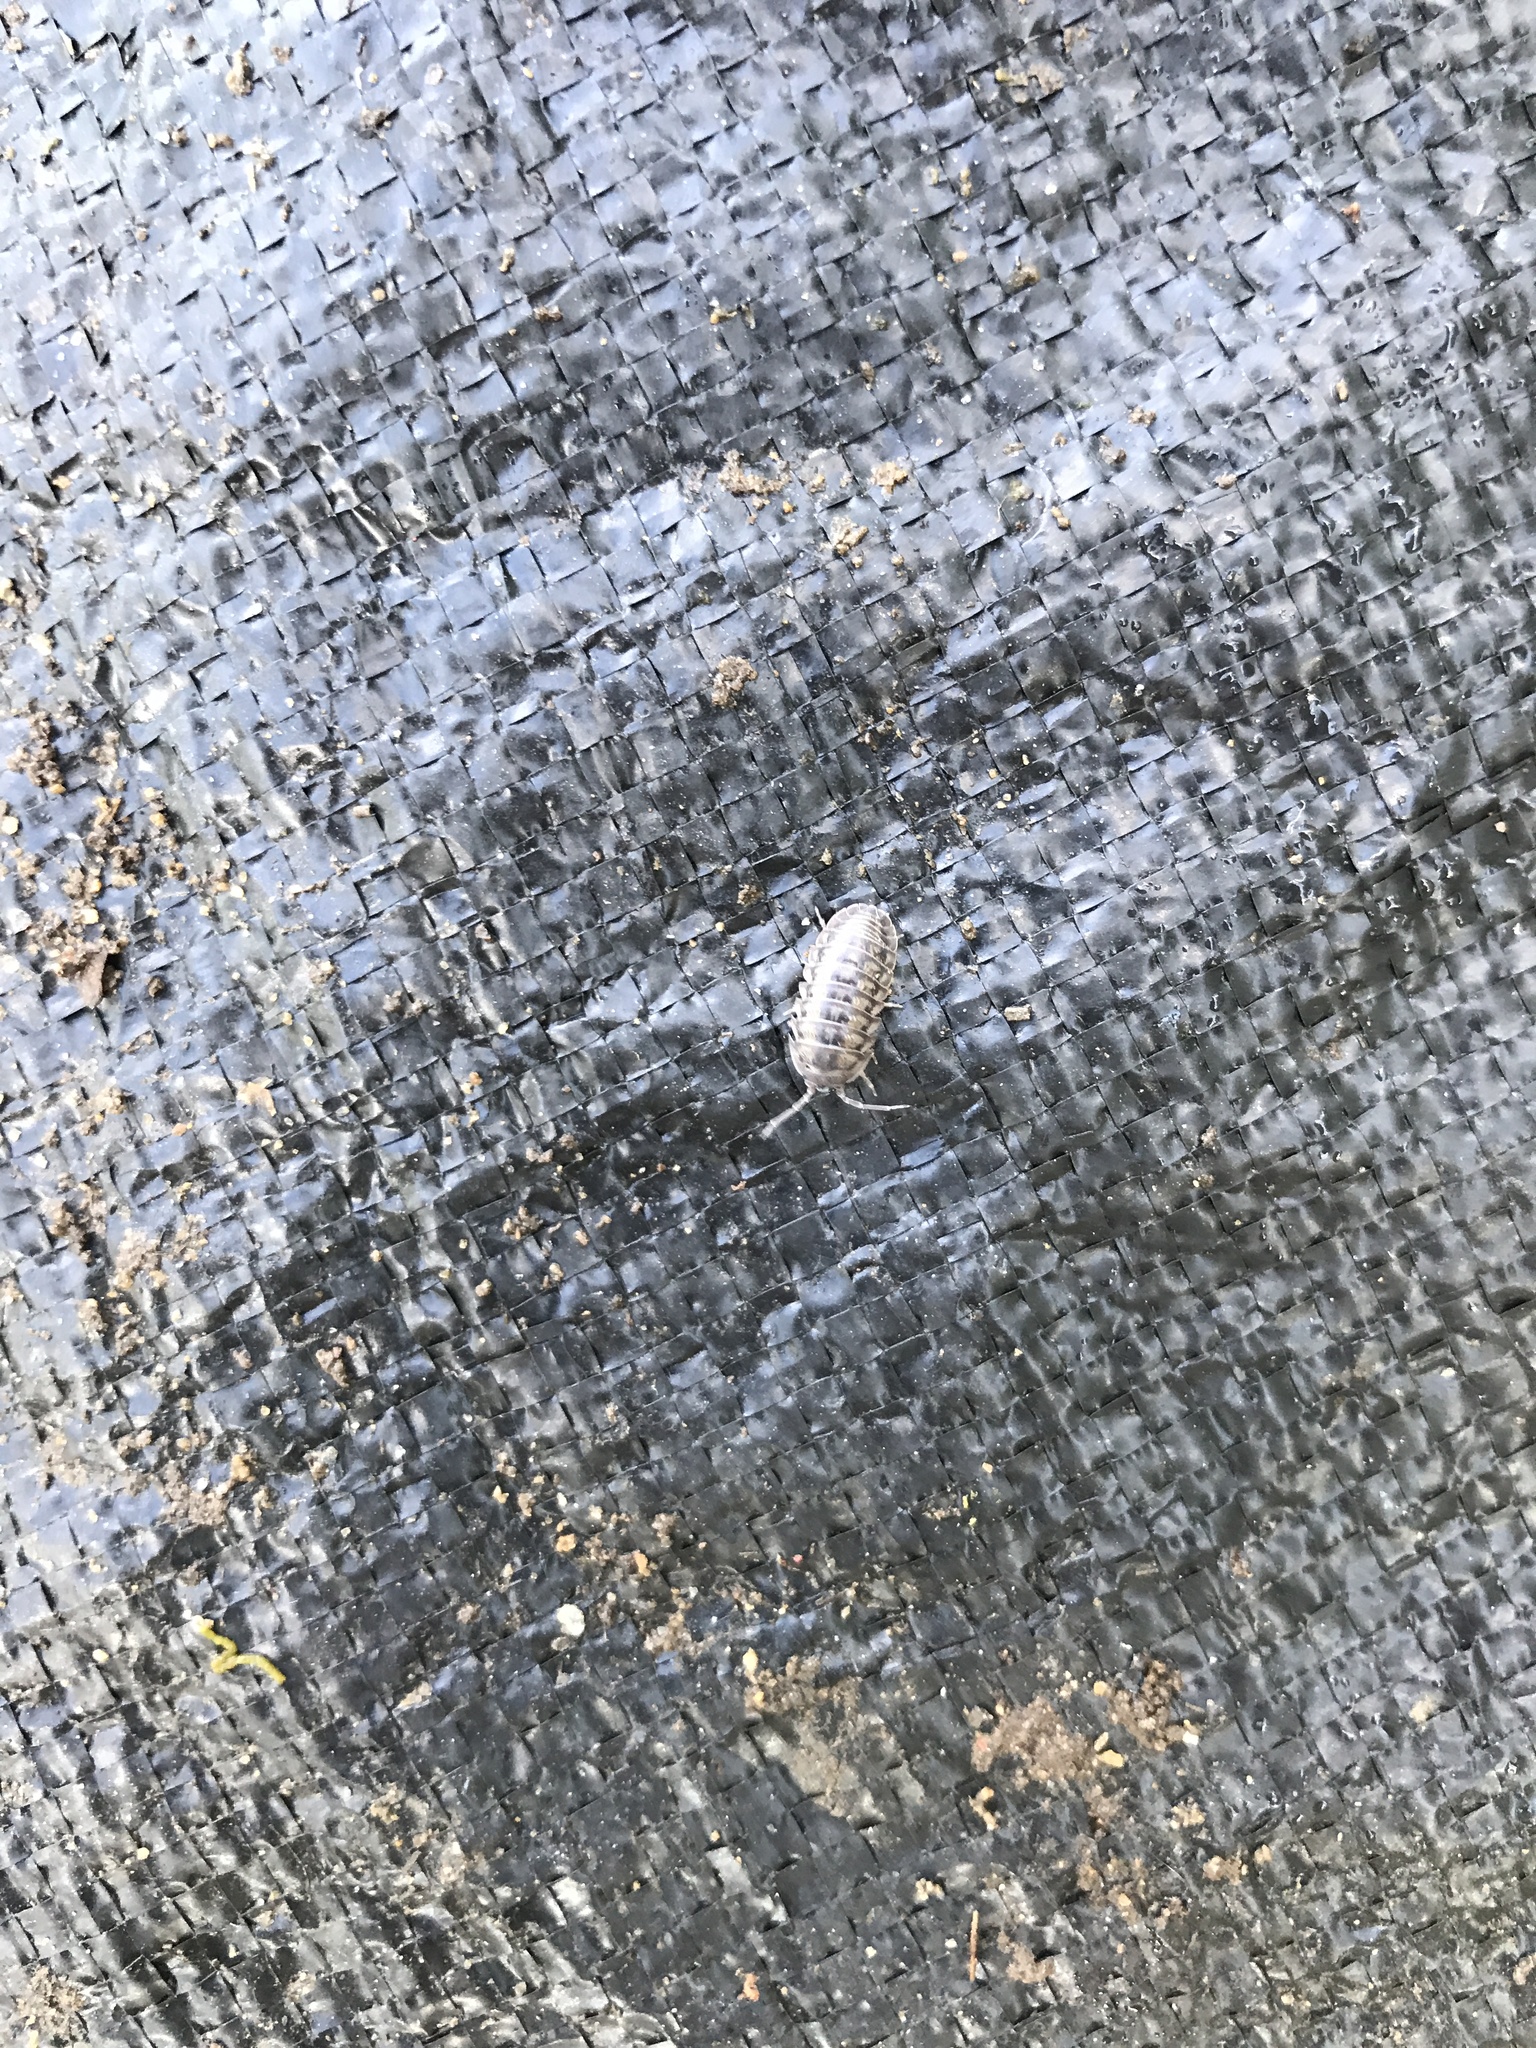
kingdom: Animalia
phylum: Arthropoda
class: Malacostraca
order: Isopoda
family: Armadillidiidae
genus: Armadillidium
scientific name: Armadillidium nasatum
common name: Isopod
